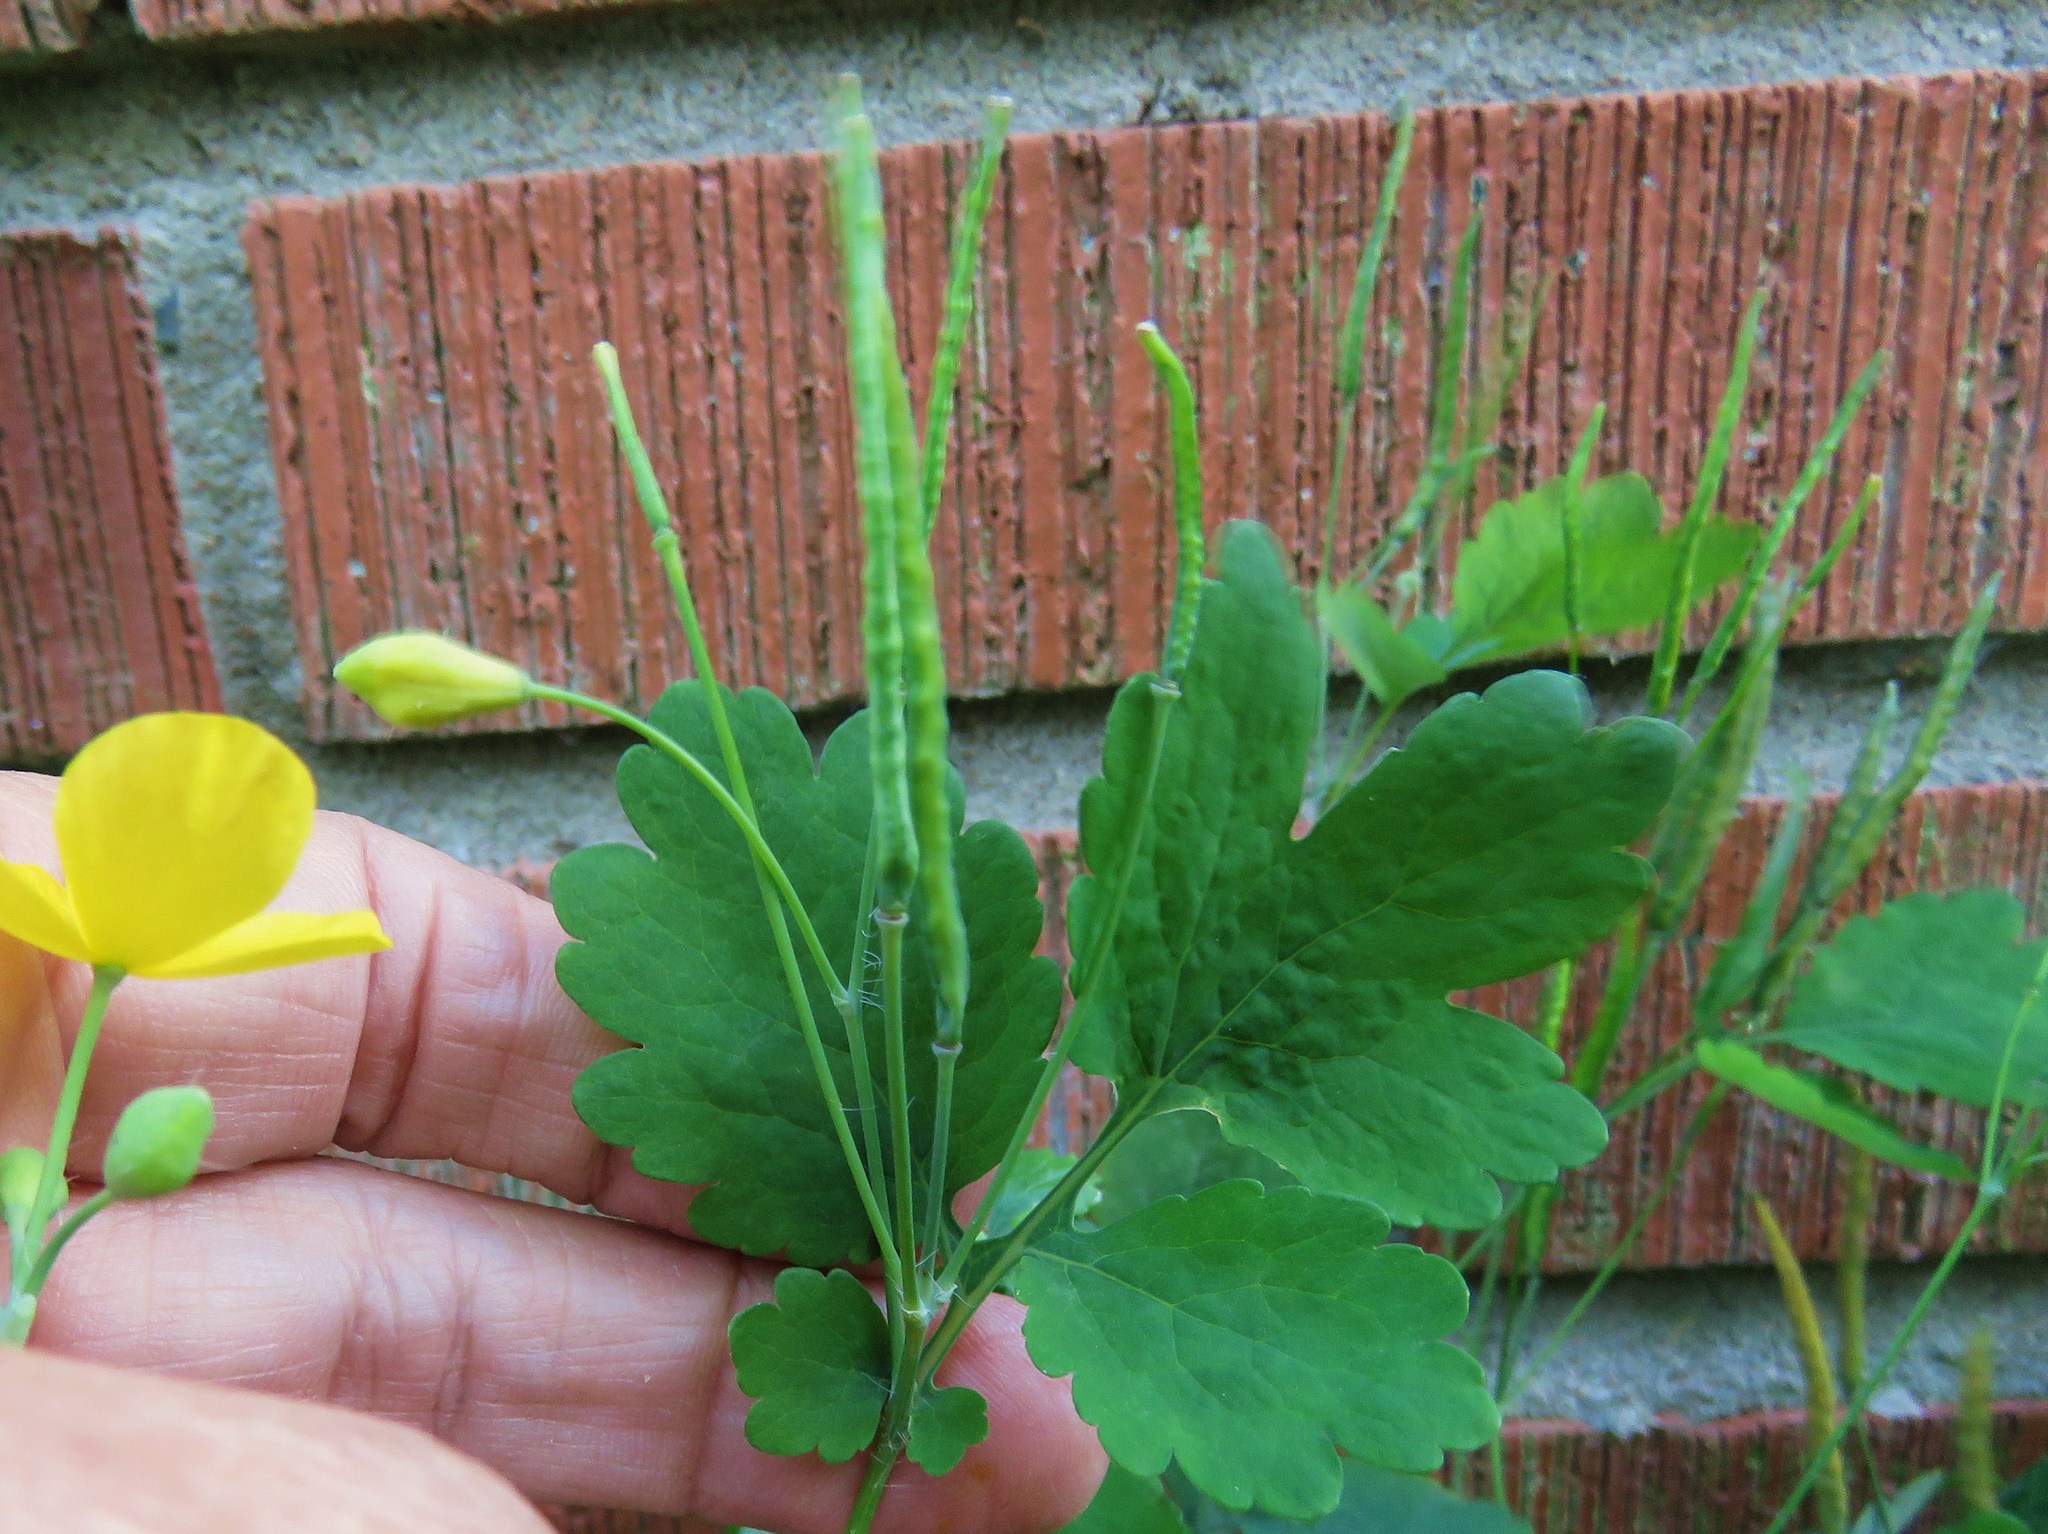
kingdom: Plantae
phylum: Tracheophyta
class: Magnoliopsida
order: Ranunculales
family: Papaveraceae
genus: Chelidonium
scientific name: Chelidonium majus
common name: Greater celandine
